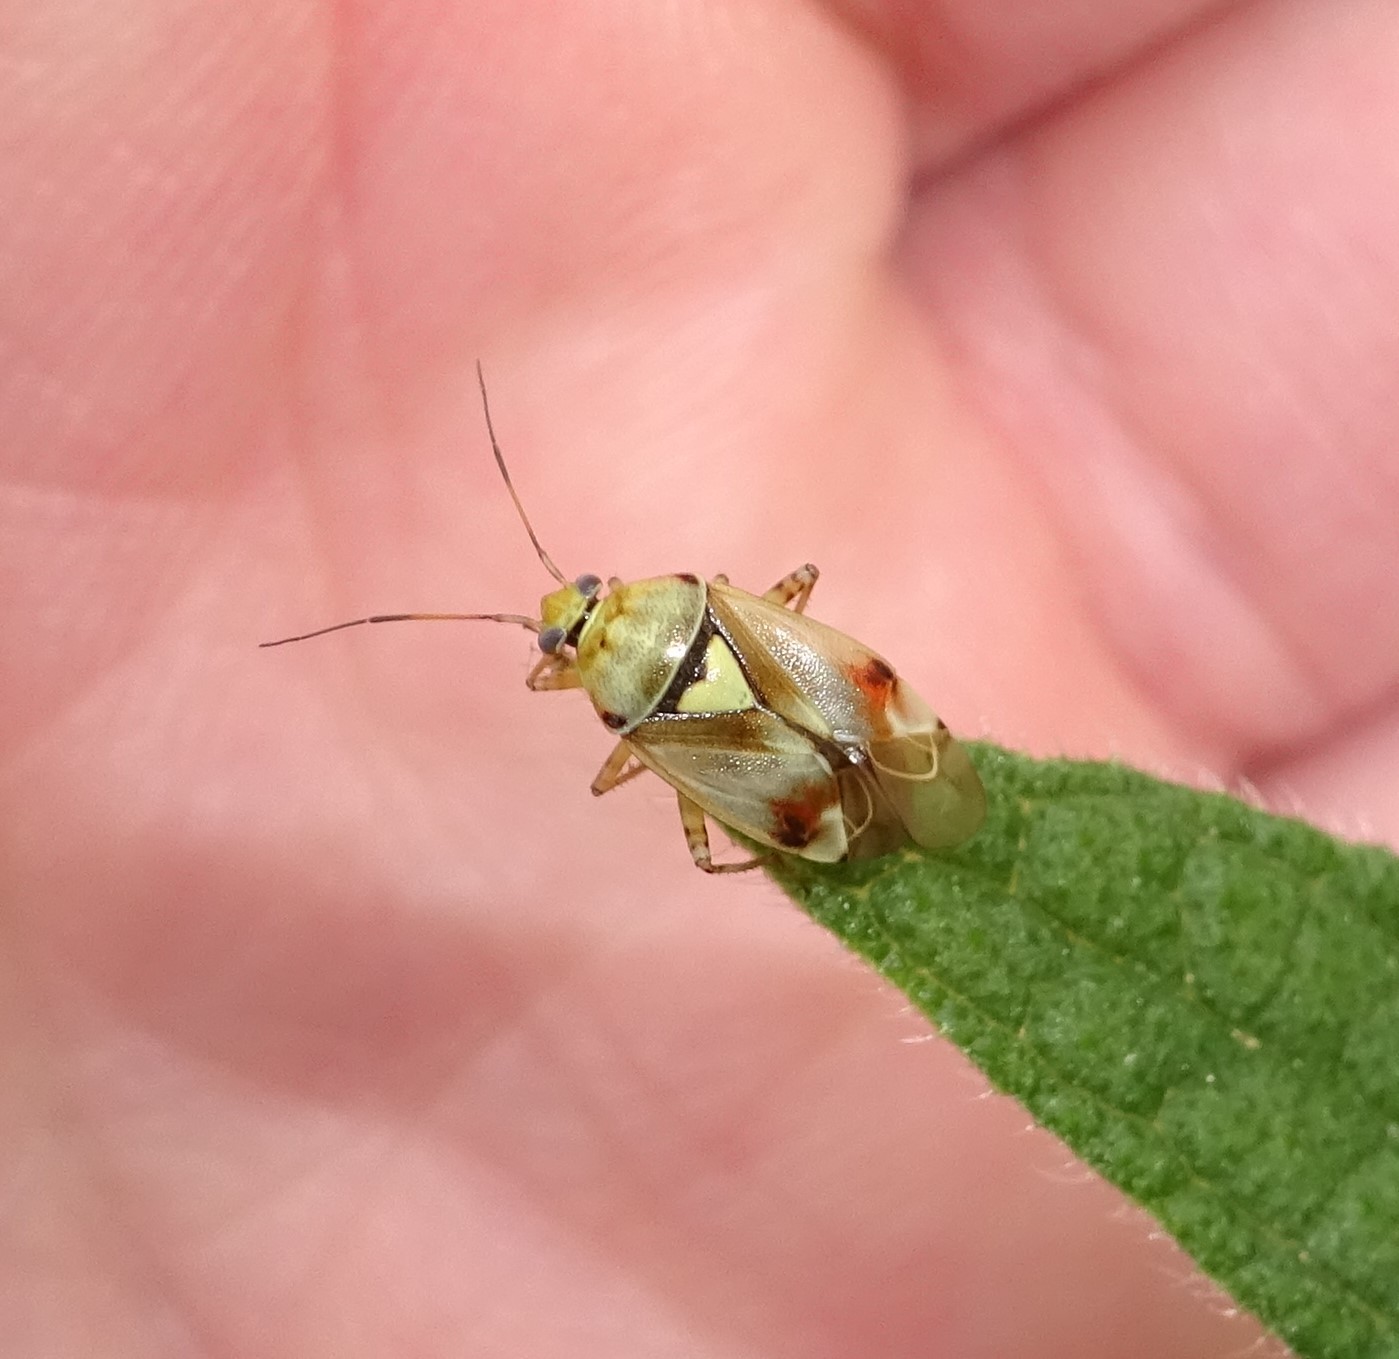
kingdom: Animalia
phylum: Arthropoda
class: Insecta
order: Hemiptera
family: Miridae
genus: Lygus
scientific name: Lygus pratensis
